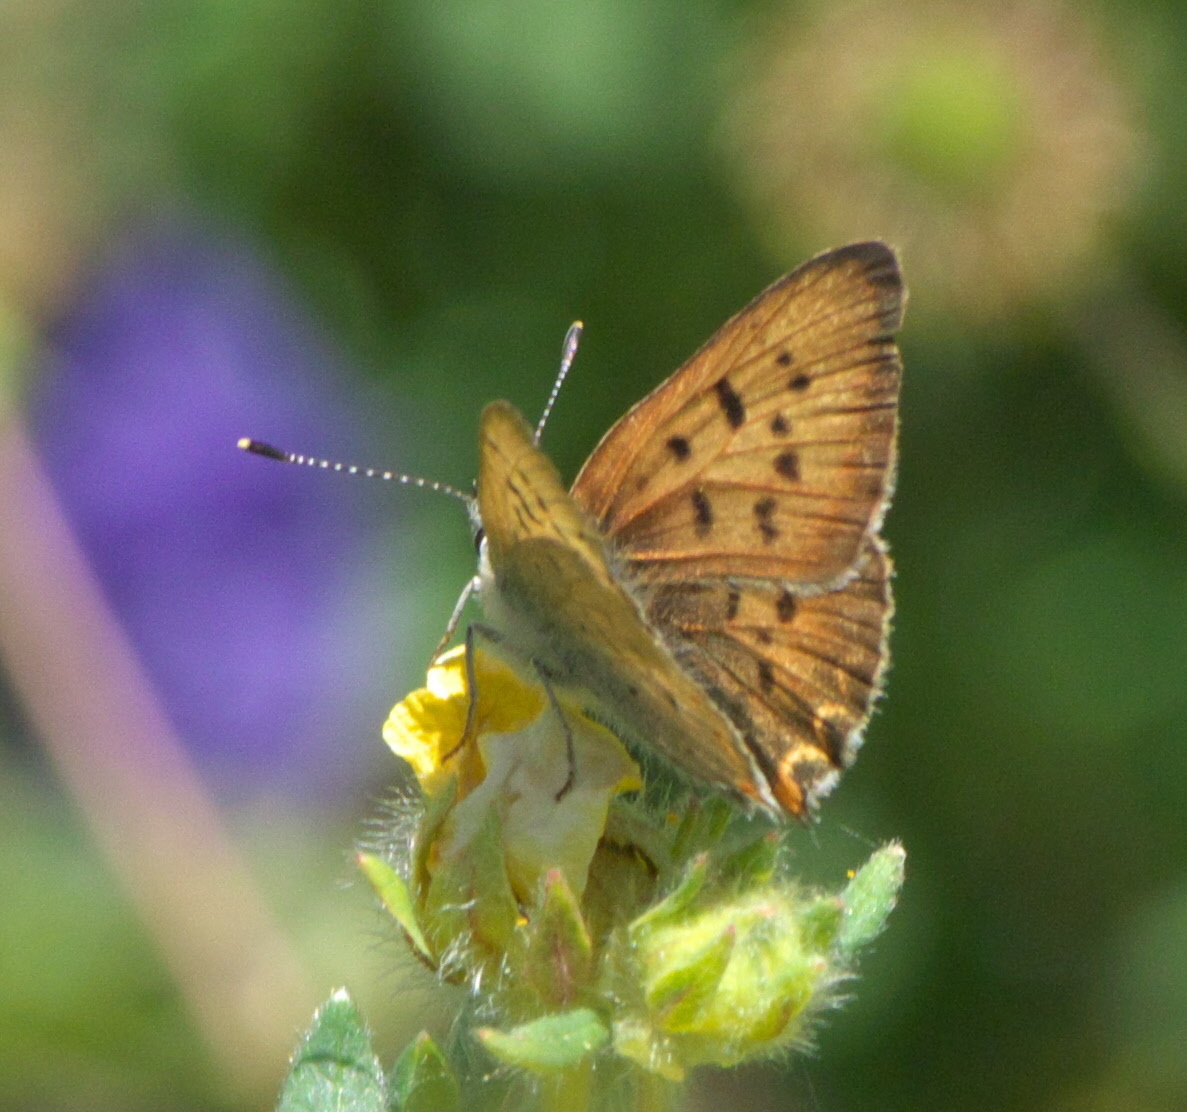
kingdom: Animalia
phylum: Arthropoda
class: Insecta
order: Lepidoptera
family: Lycaenidae
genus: Tharsalea
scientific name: Tharsalea helloides
